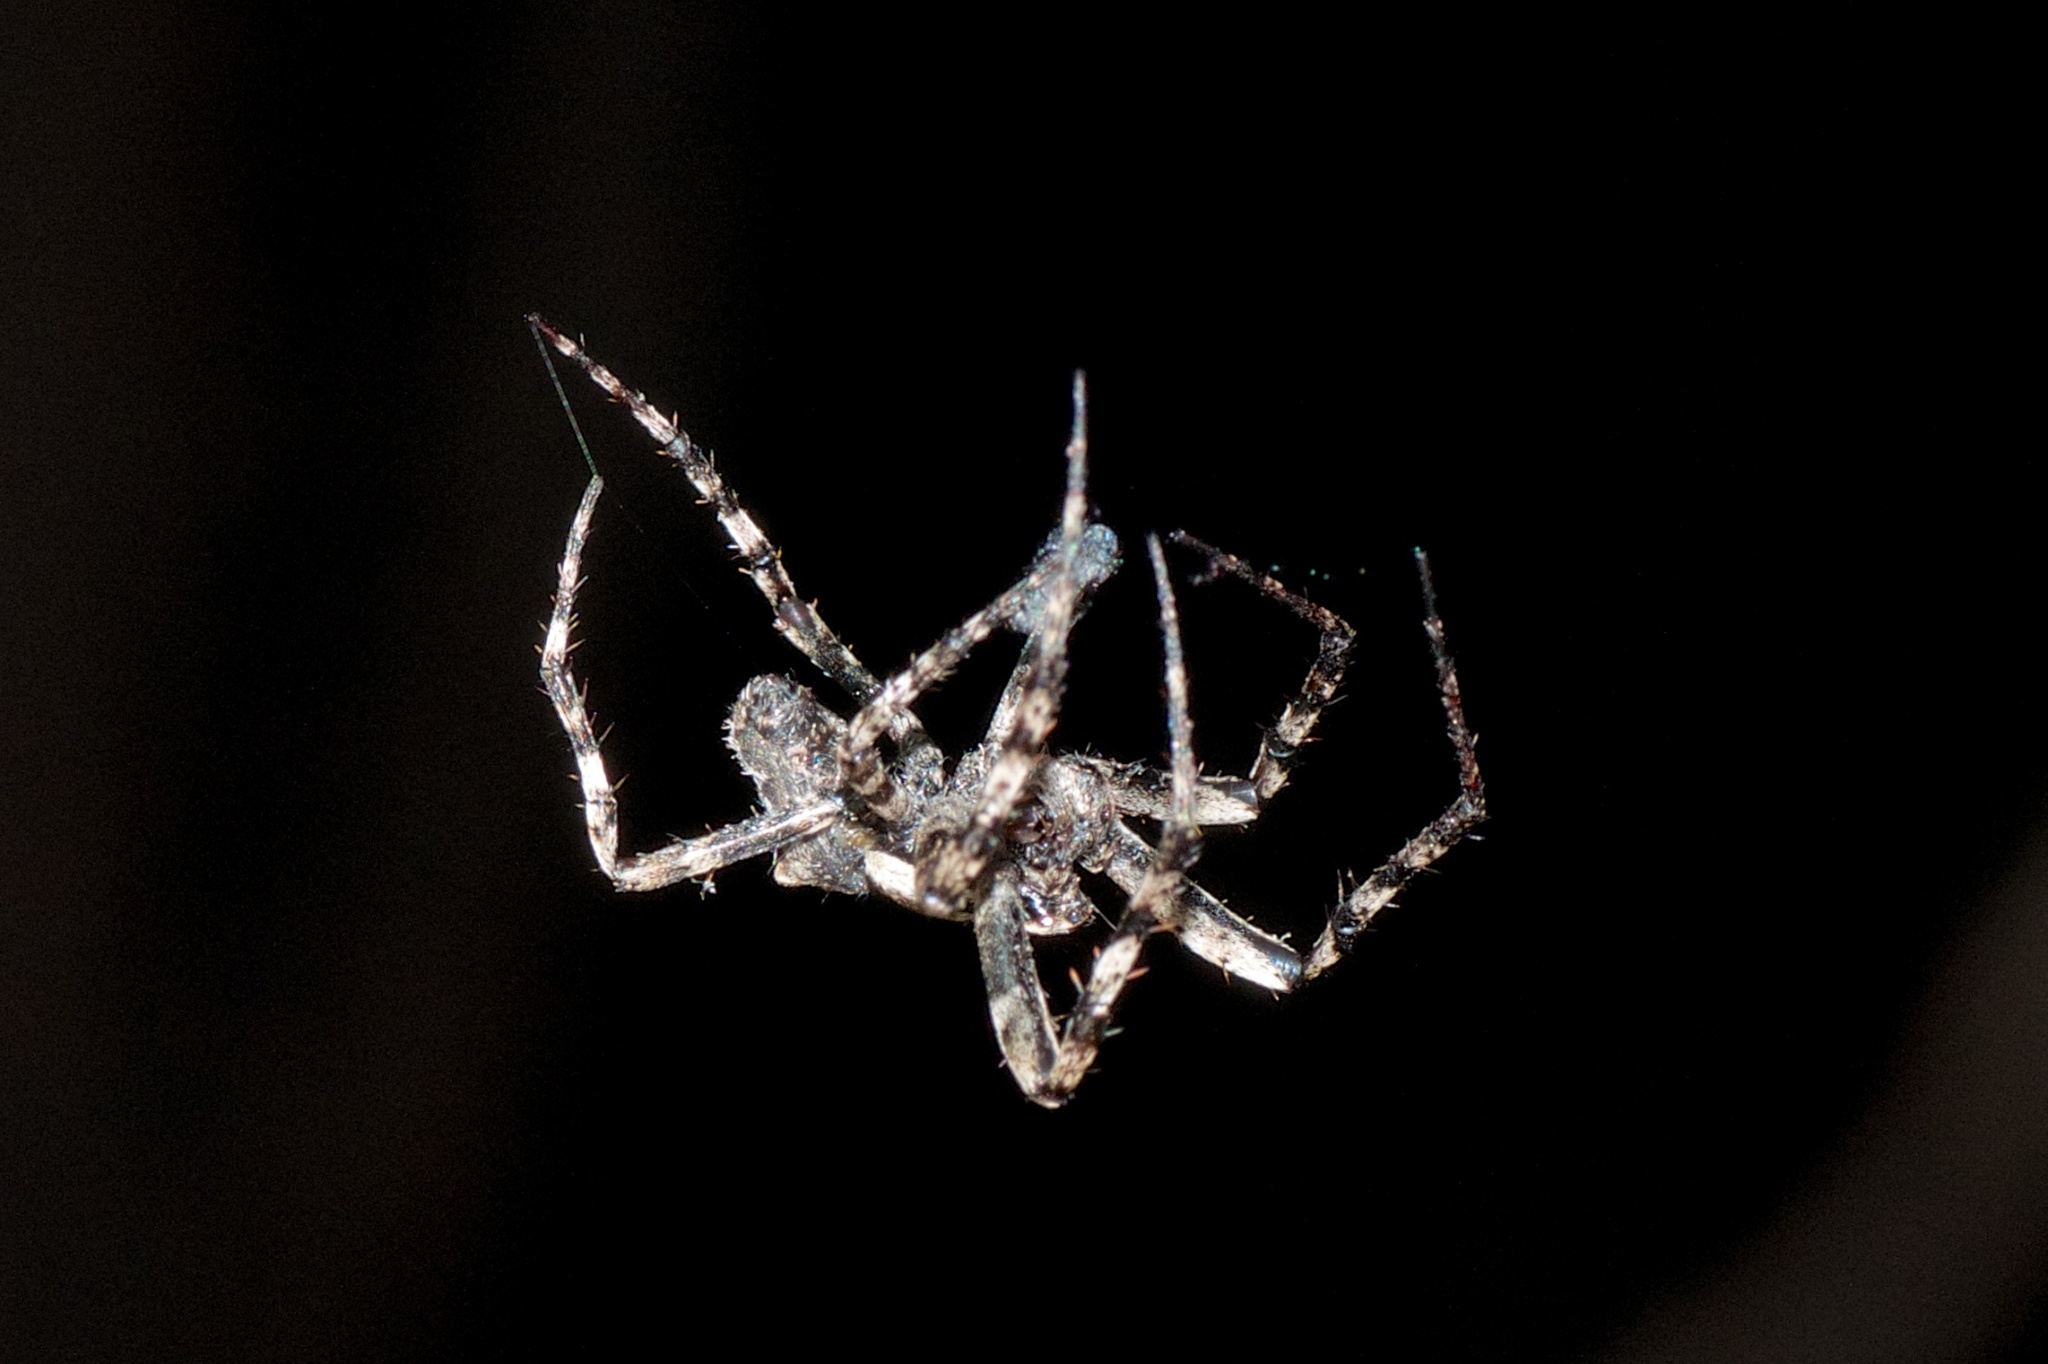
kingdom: Animalia
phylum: Arthropoda
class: Arachnida
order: Araneae
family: Araneidae
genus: Eriophora
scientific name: Eriophora pustulosa
